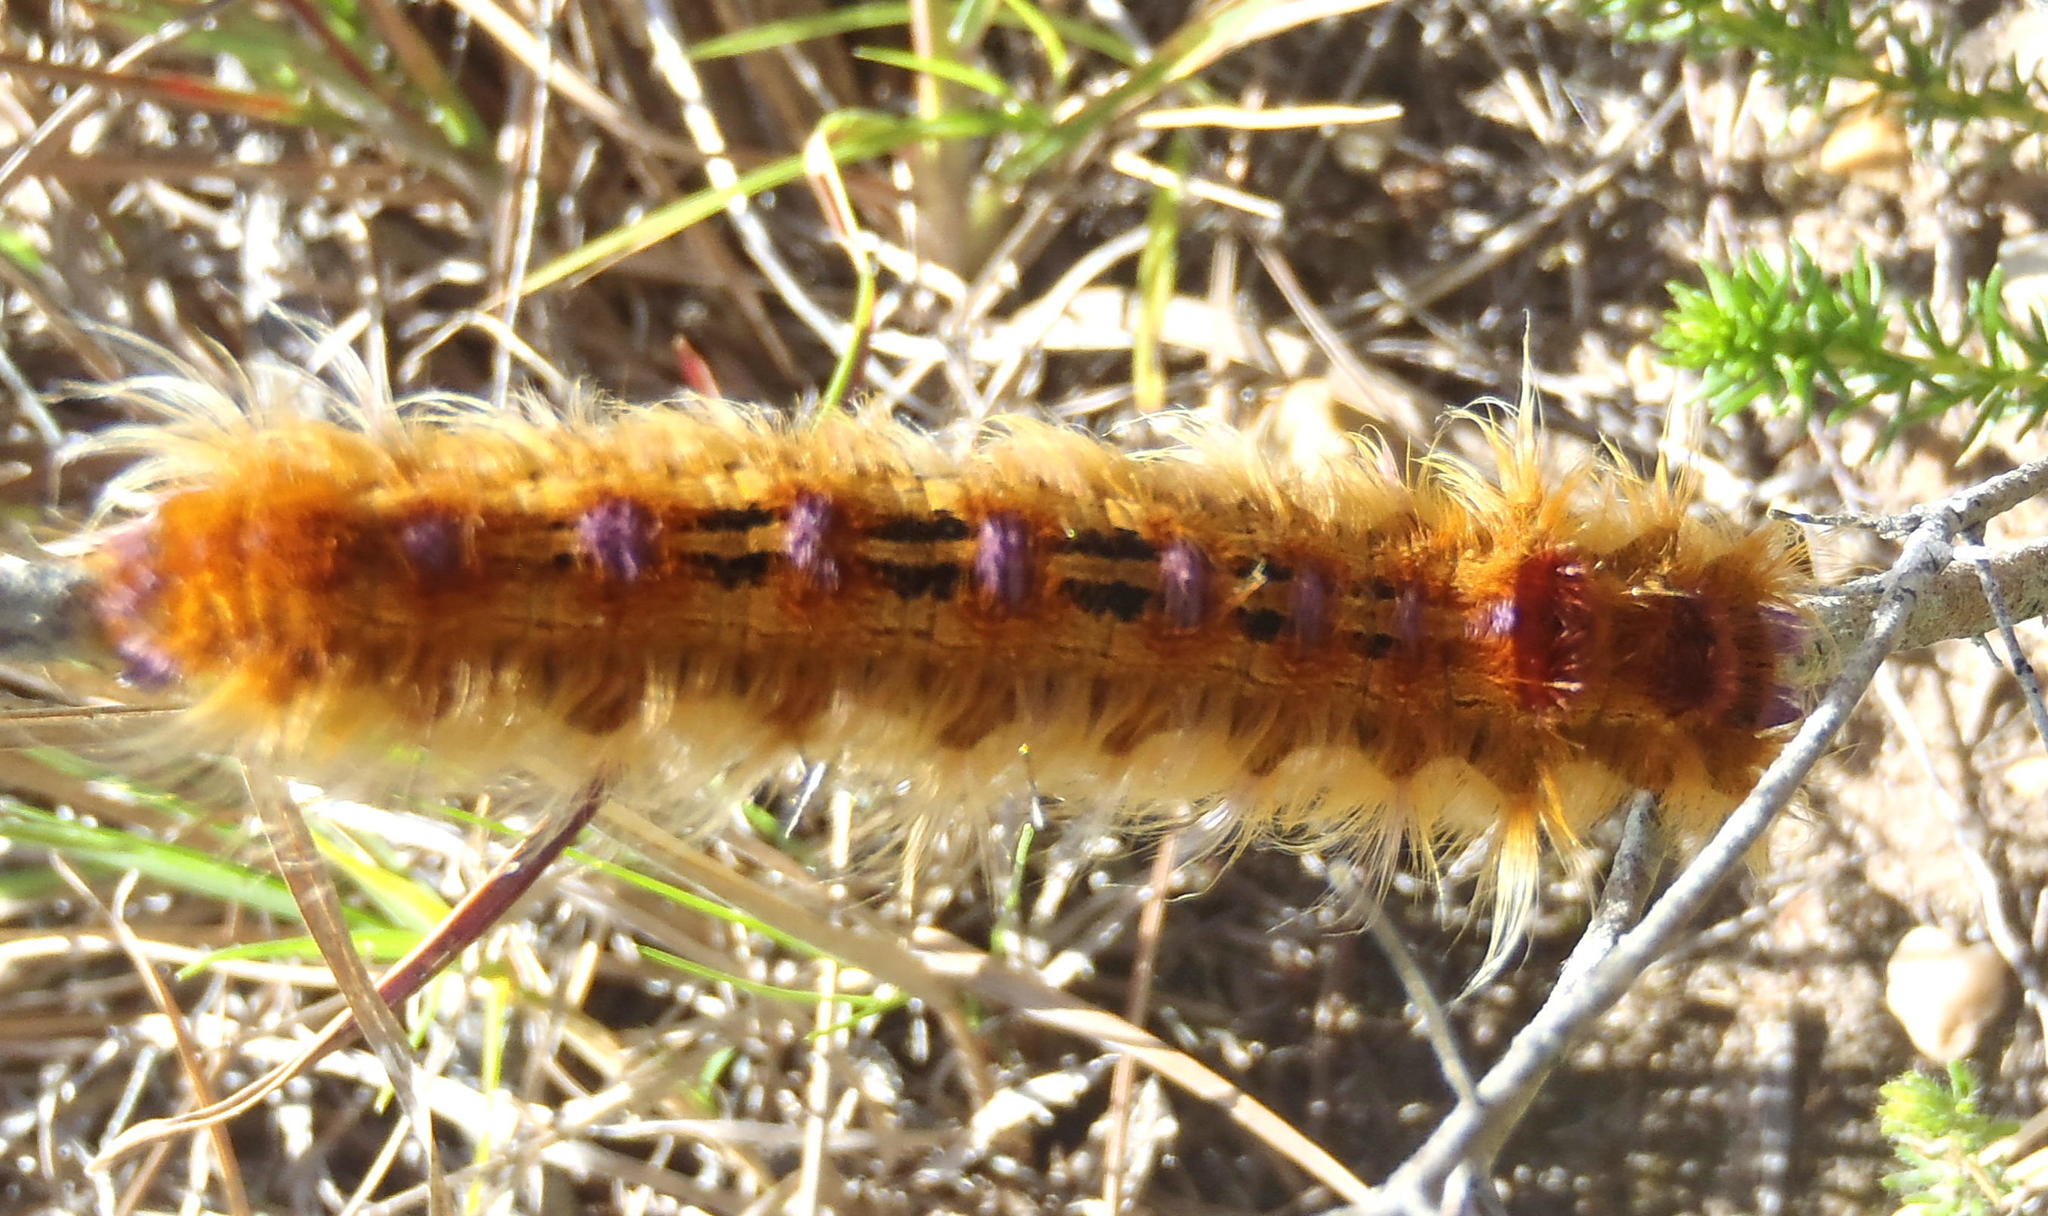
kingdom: Animalia
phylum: Arthropoda
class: Insecta
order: Lepidoptera
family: Lasiocampidae
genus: Eutricha
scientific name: Eutricha bifascia
